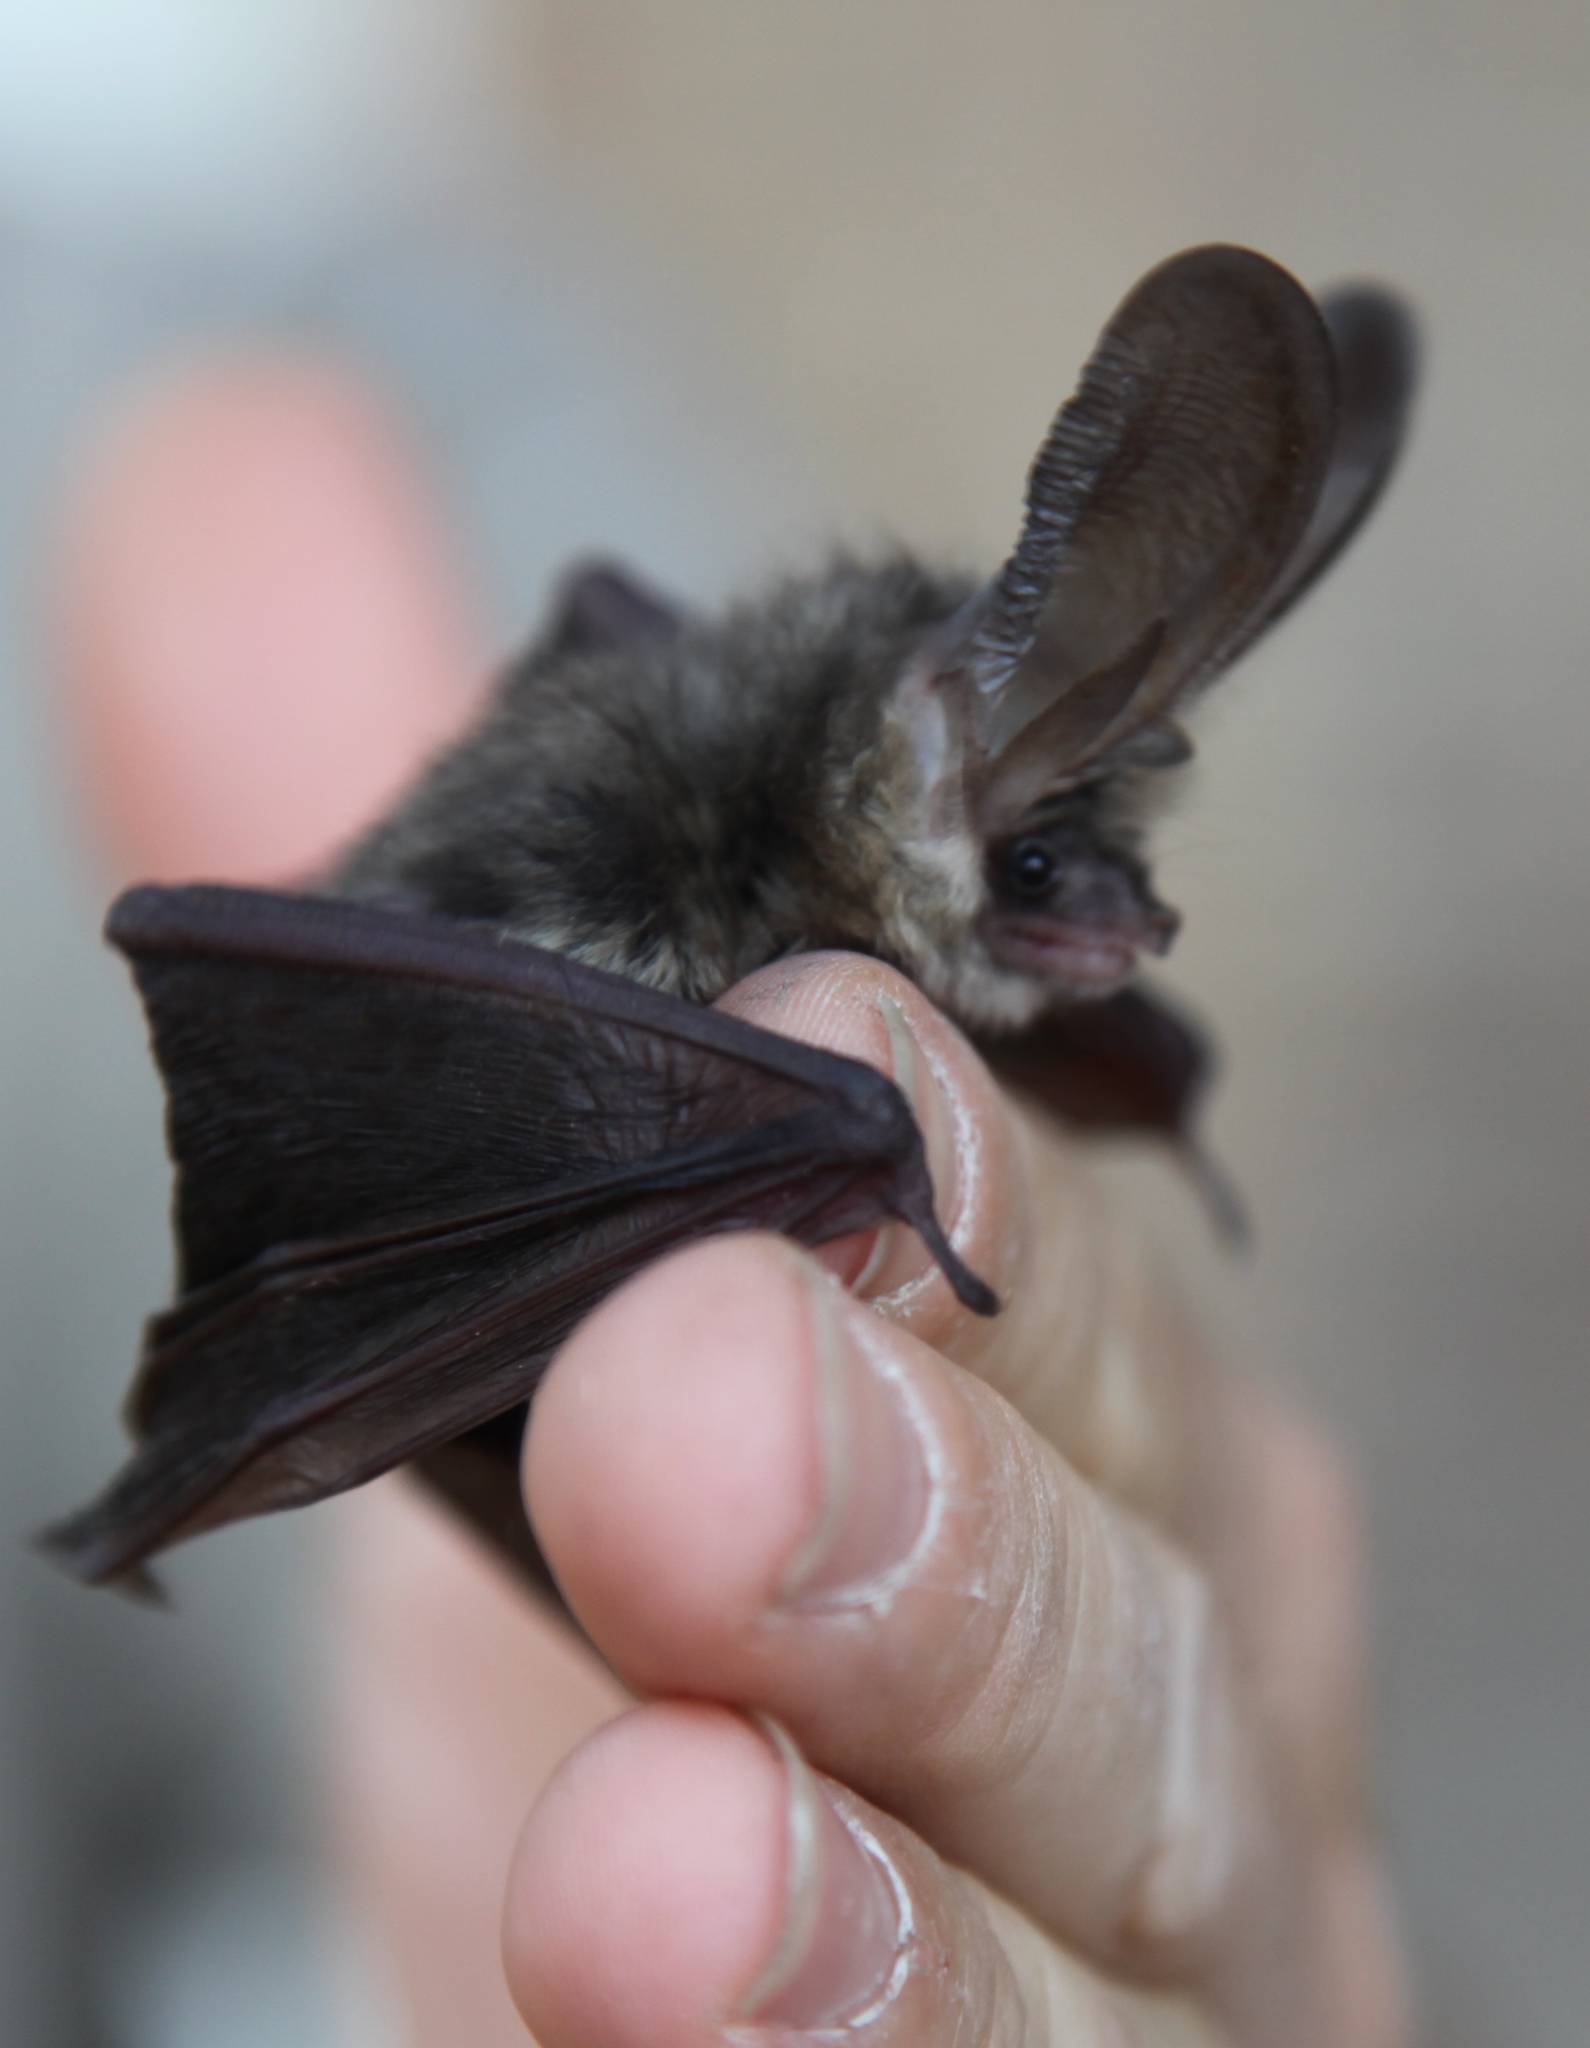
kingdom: Animalia
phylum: Chordata
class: Mammalia
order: Chiroptera
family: Vespertilionidae
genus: Plecotus
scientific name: Plecotus austriacus
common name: Grey long-eared bat
